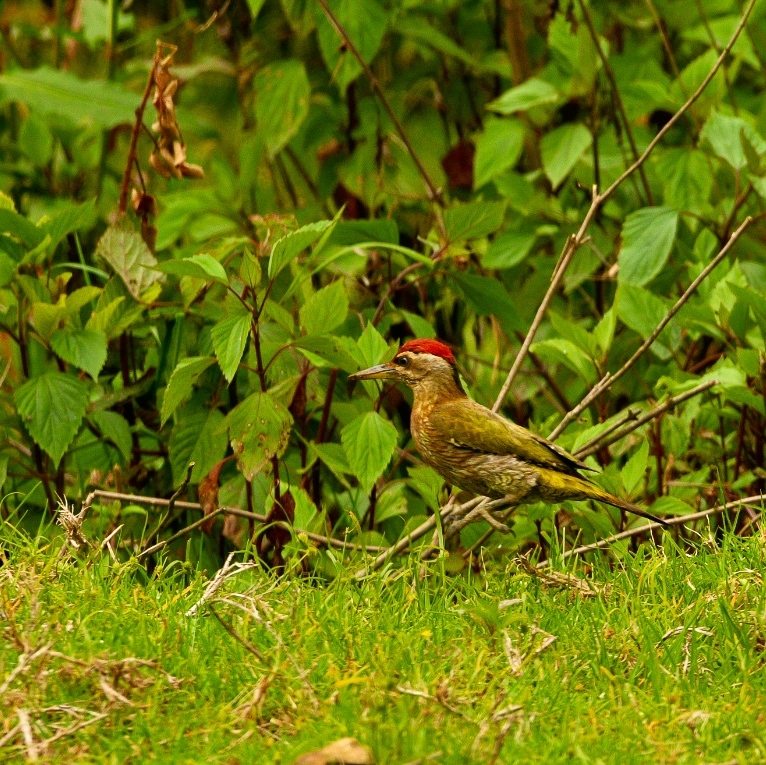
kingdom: Animalia
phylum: Chordata
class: Aves
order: Piciformes
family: Picidae
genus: Picus
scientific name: Picus xanthopygaeus
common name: Streak-throated woodpecker
